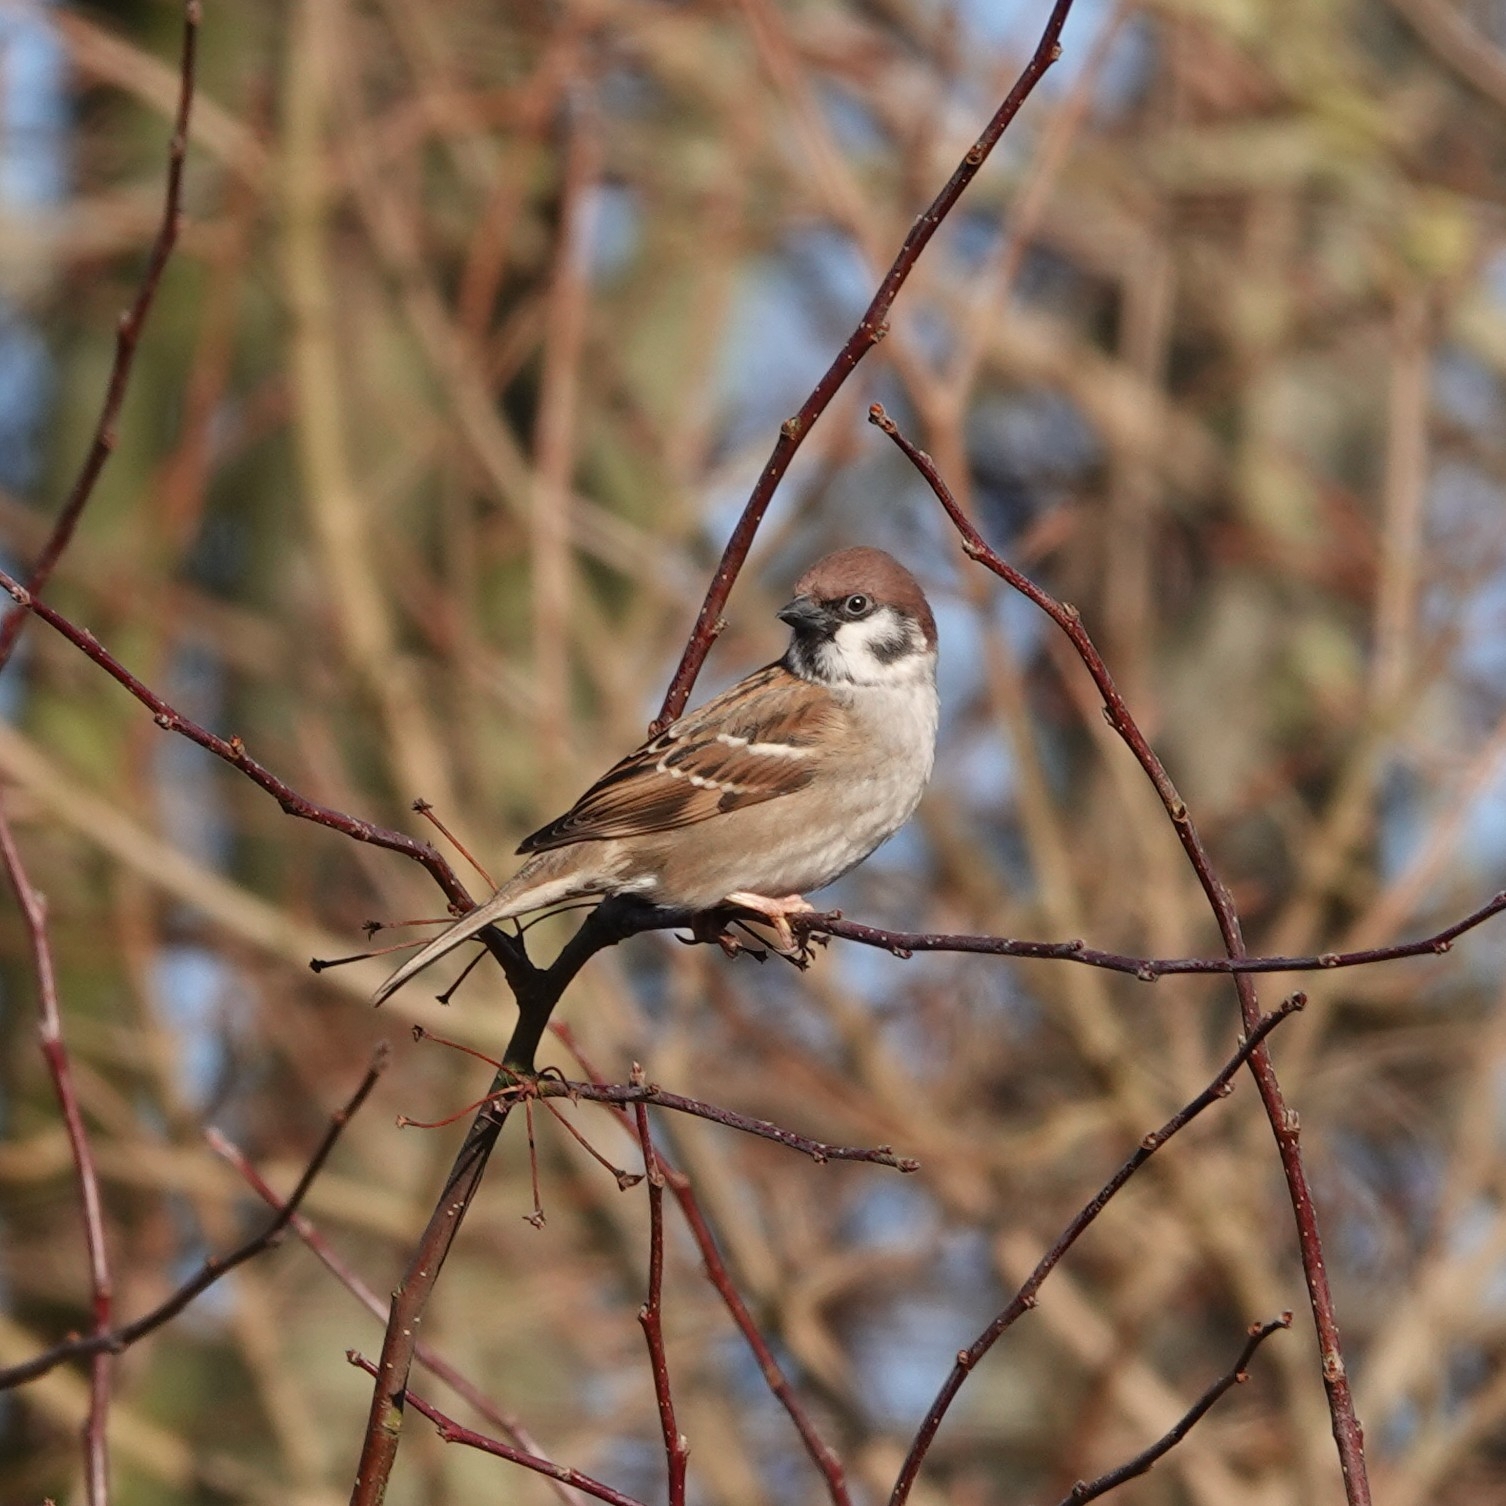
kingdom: Animalia
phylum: Chordata
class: Aves
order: Passeriformes
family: Passeridae
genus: Passer
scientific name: Passer montanus
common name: Eurasian tree sparrow
